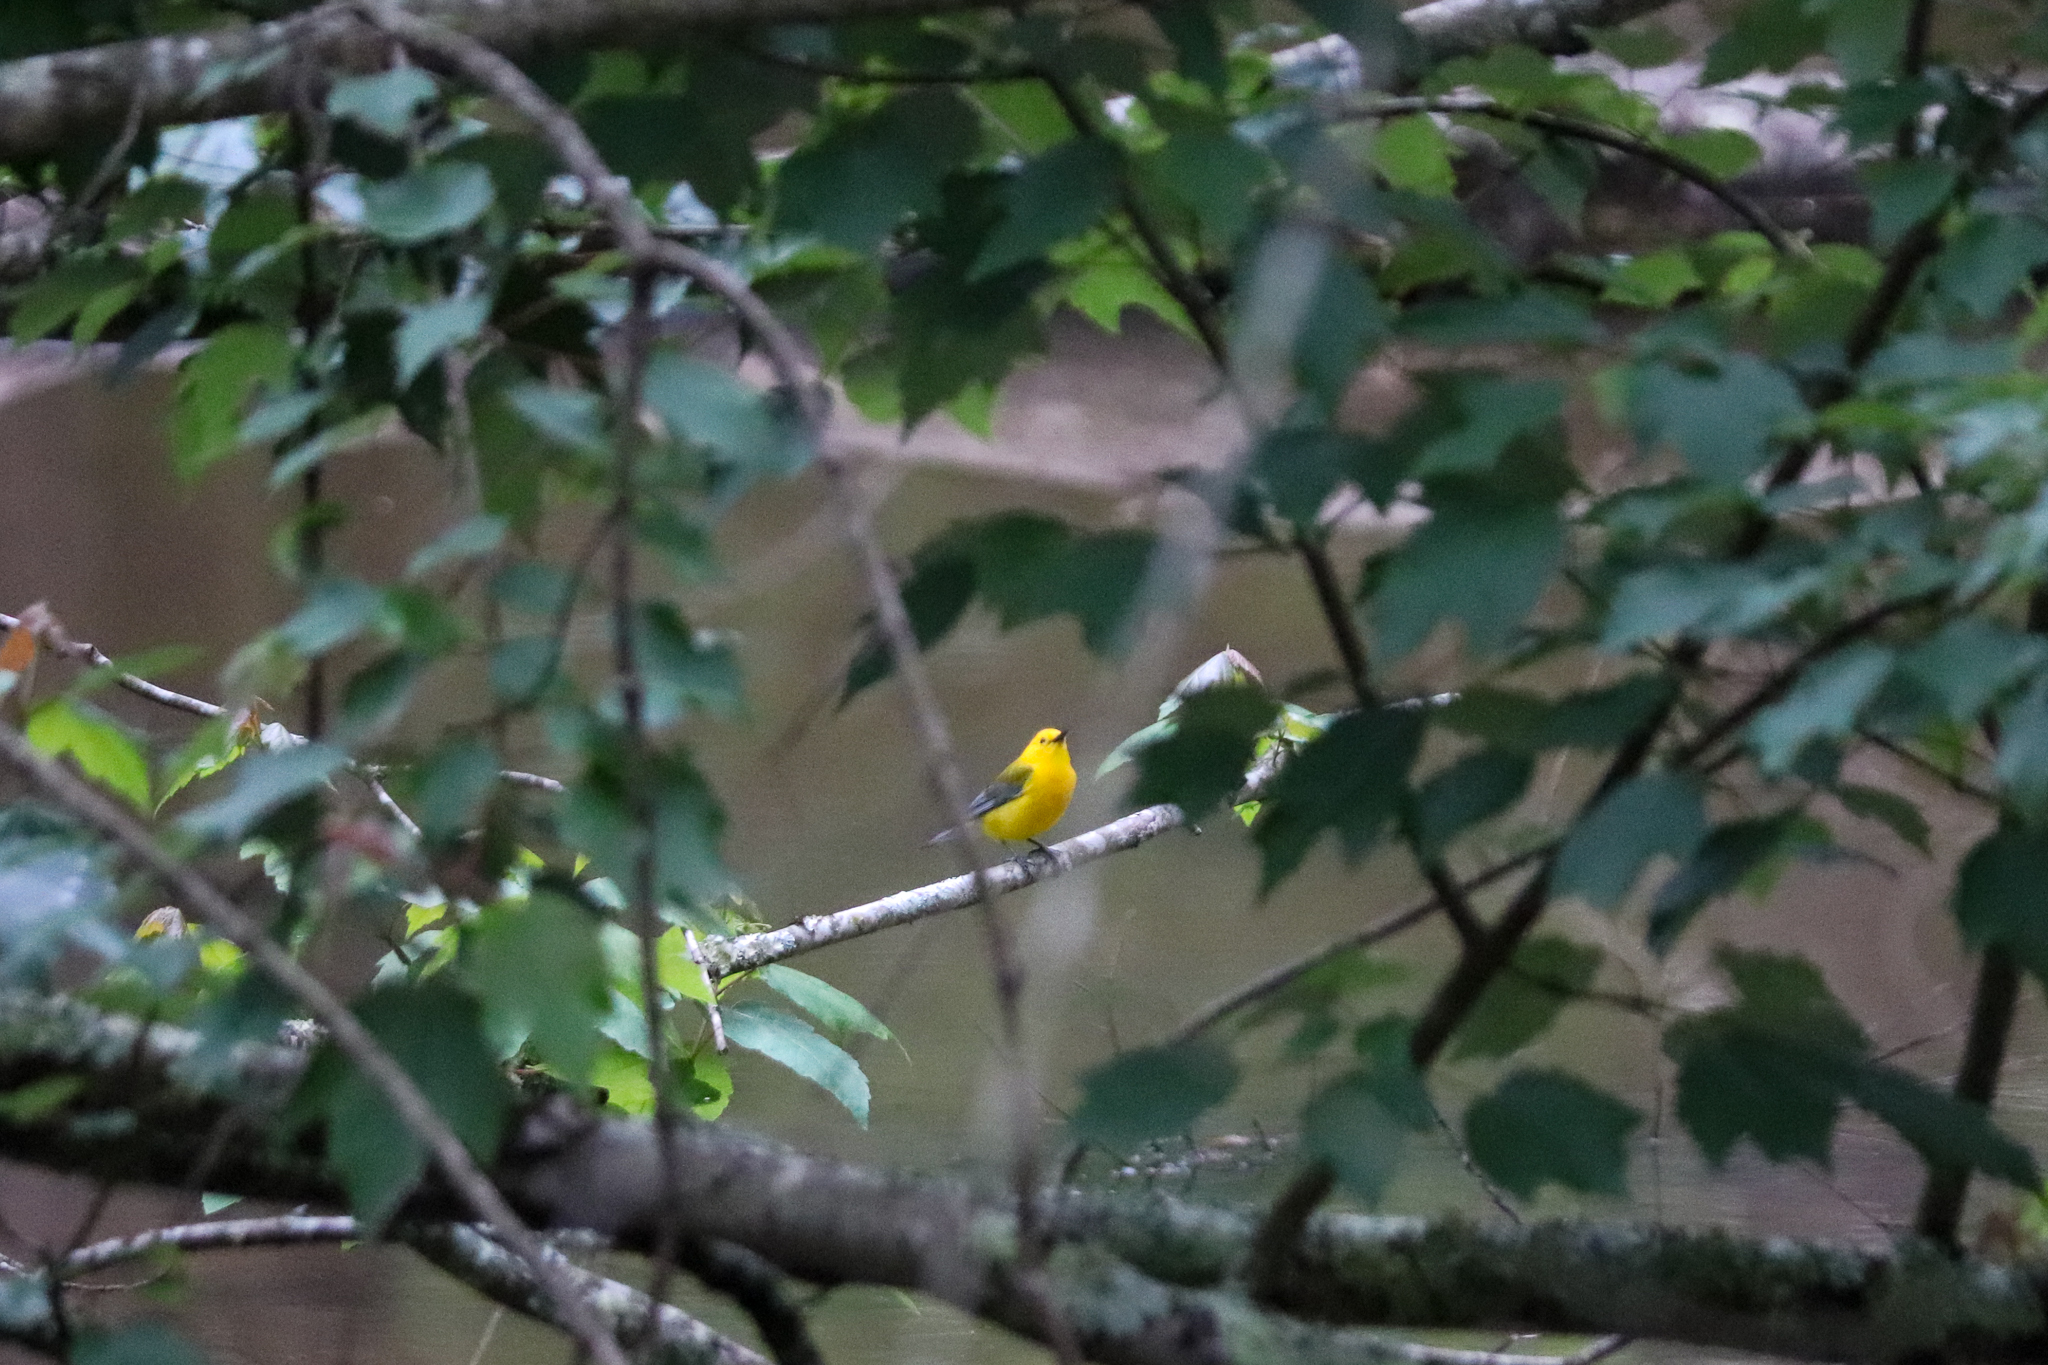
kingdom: Animalia
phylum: Chordata
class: Aves
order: Passeriformes
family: Parulidae
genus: Protonotaria
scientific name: Protonotaria citrea
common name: Prothonotary warbler
